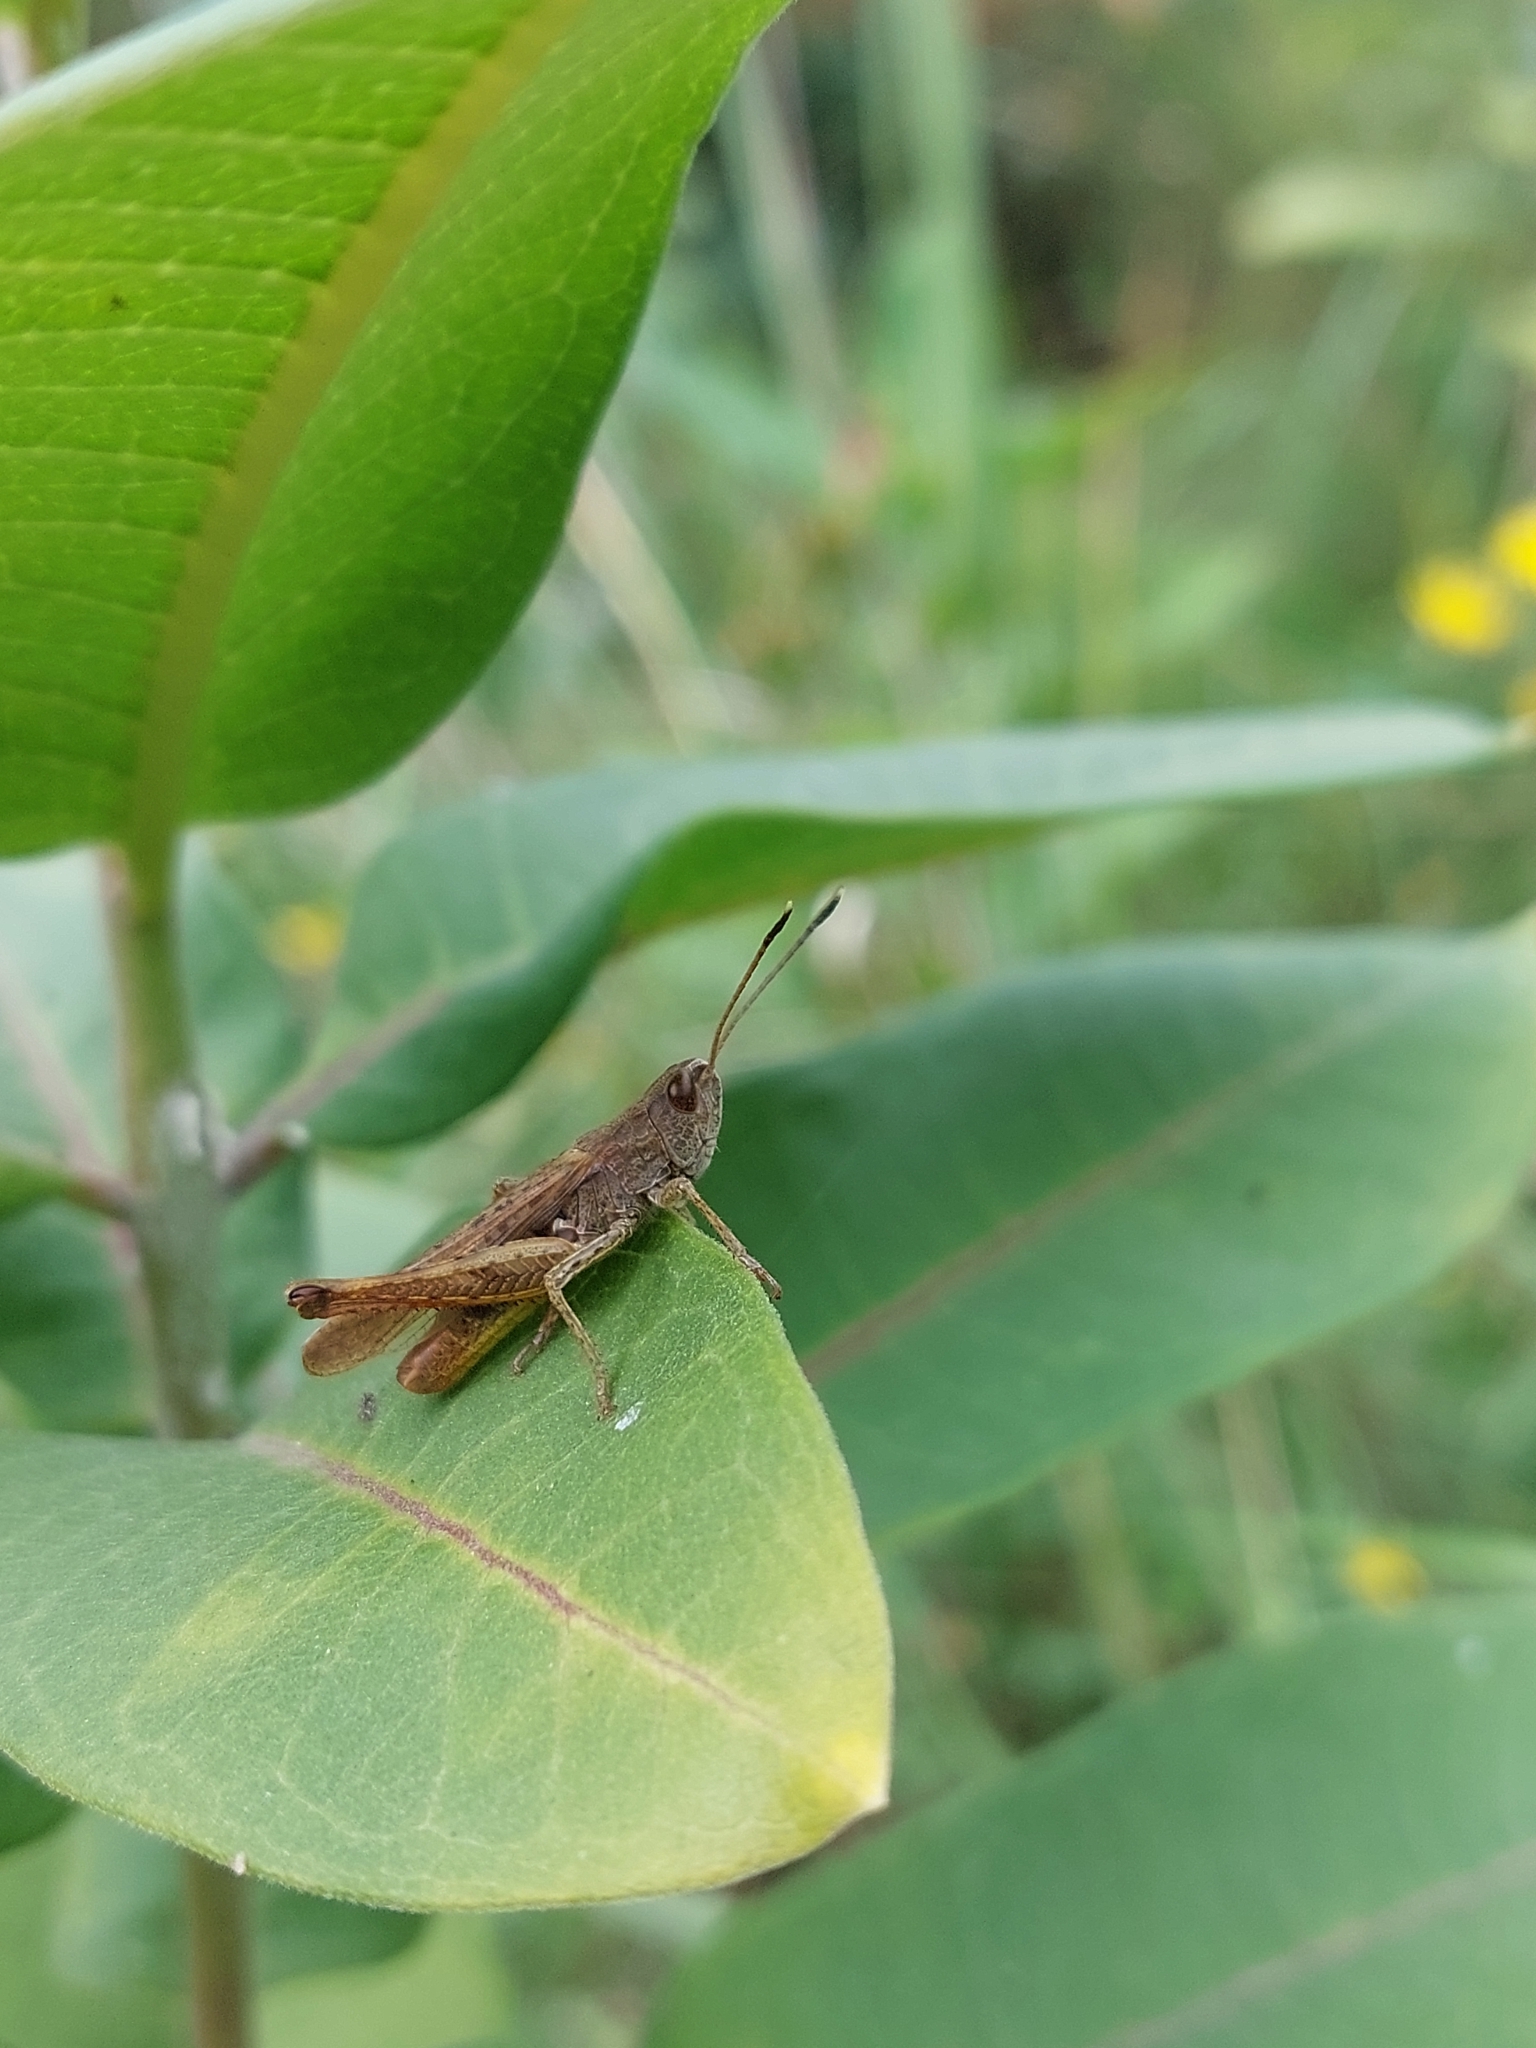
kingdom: Animalia
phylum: Arthropoda
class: Insecta
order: Orthoptera
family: Acrididae
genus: Gomphocerippus
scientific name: Gomphocerippus rufus
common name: Rufous grasshopper
